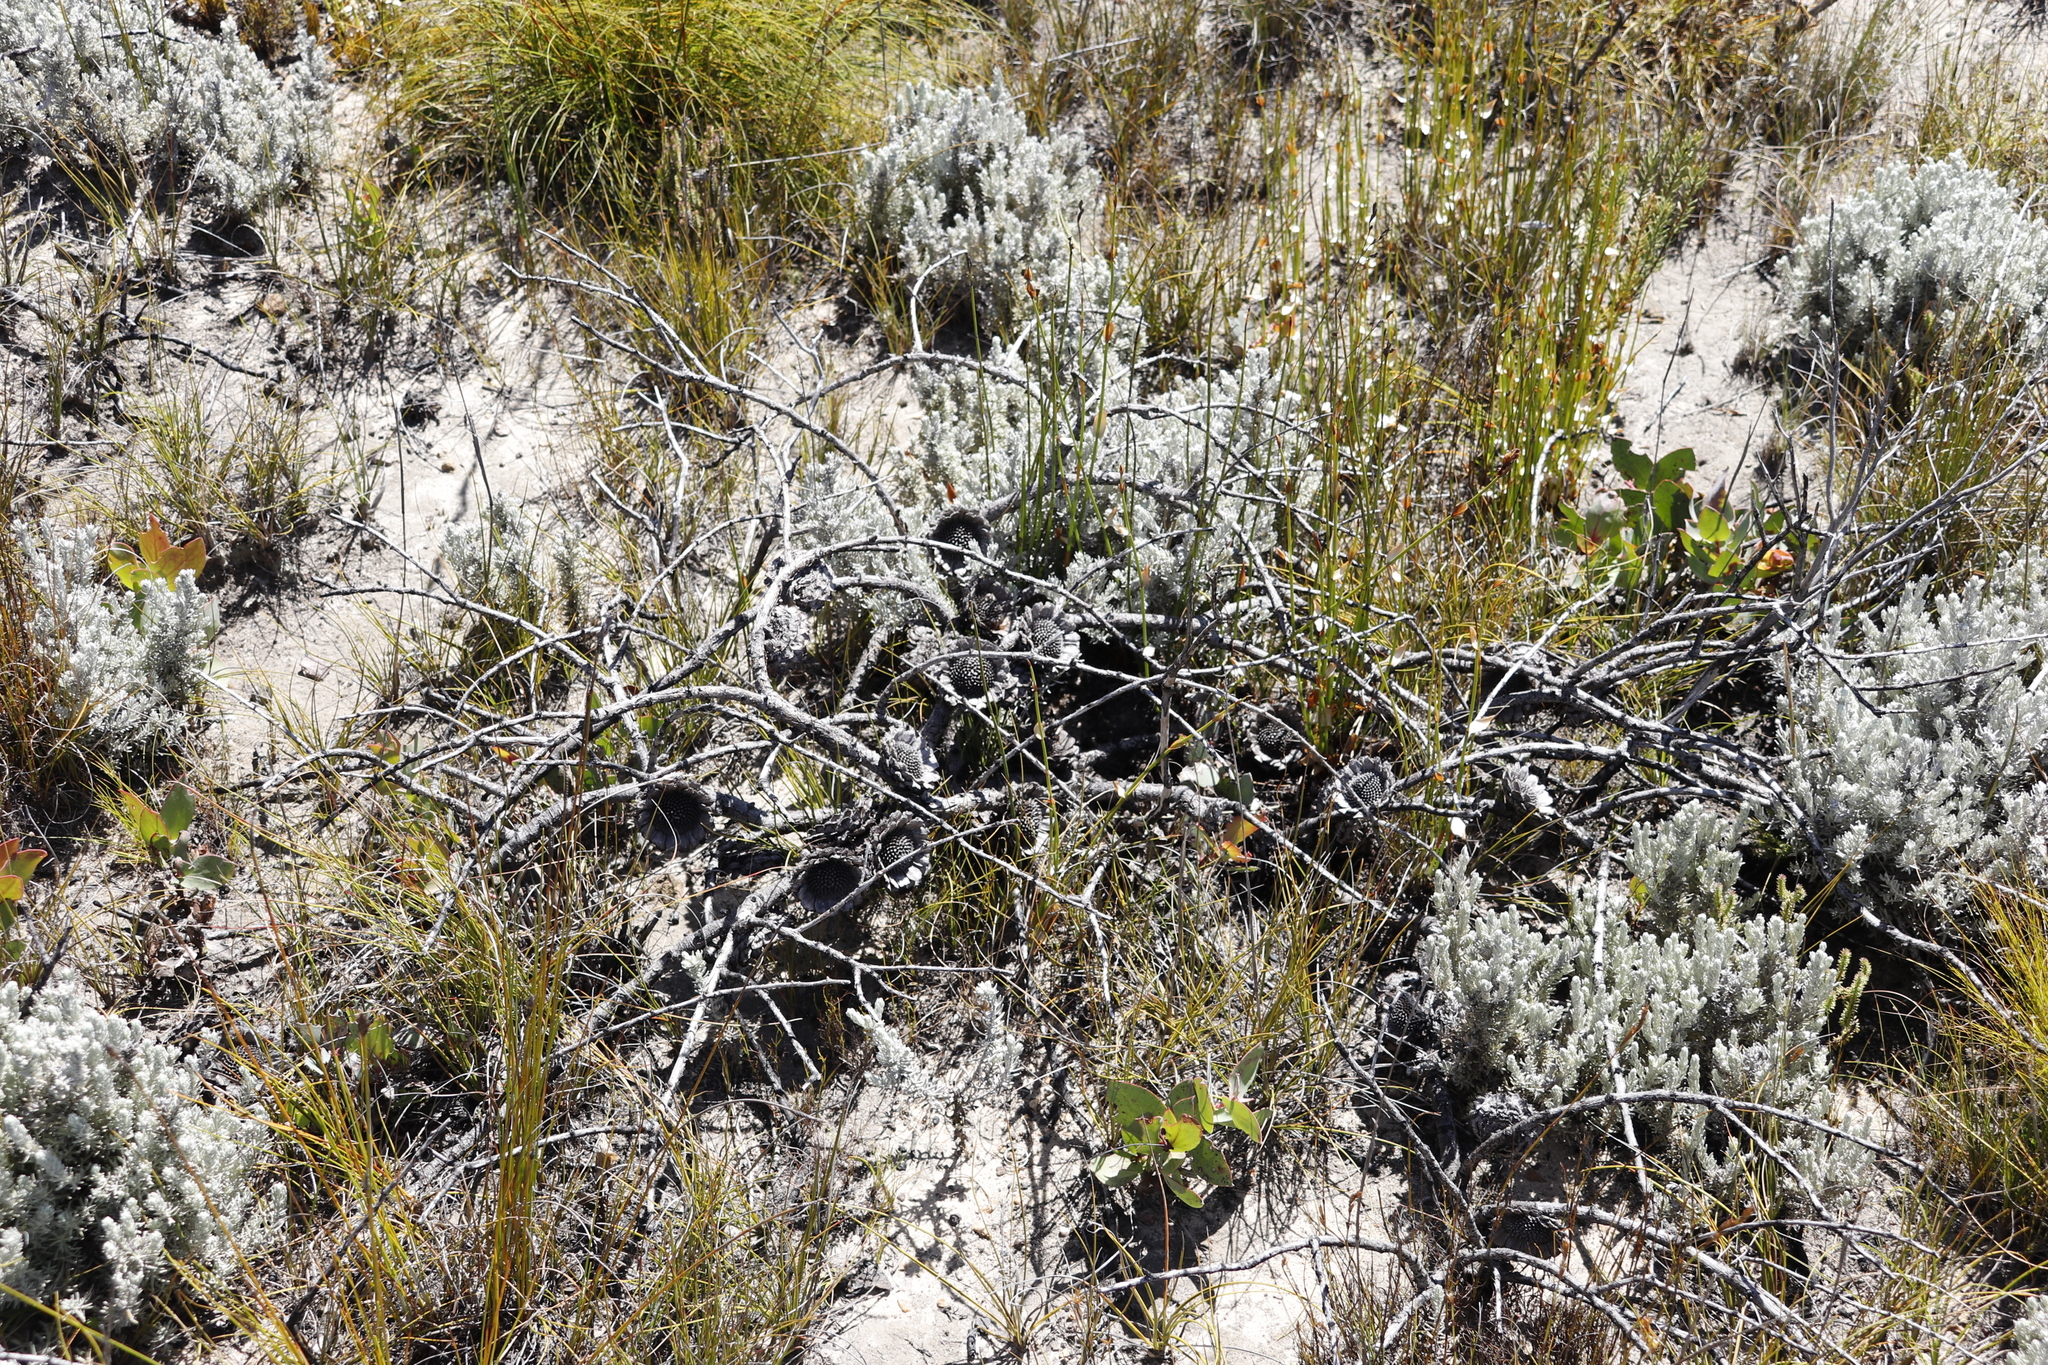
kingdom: Plantae
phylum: Tracheophyta
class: Magnoliopsida
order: Proteales
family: Proteaceae
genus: Protea
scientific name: Protea amplexicaulis
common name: Clasping-leaf sugarbush
